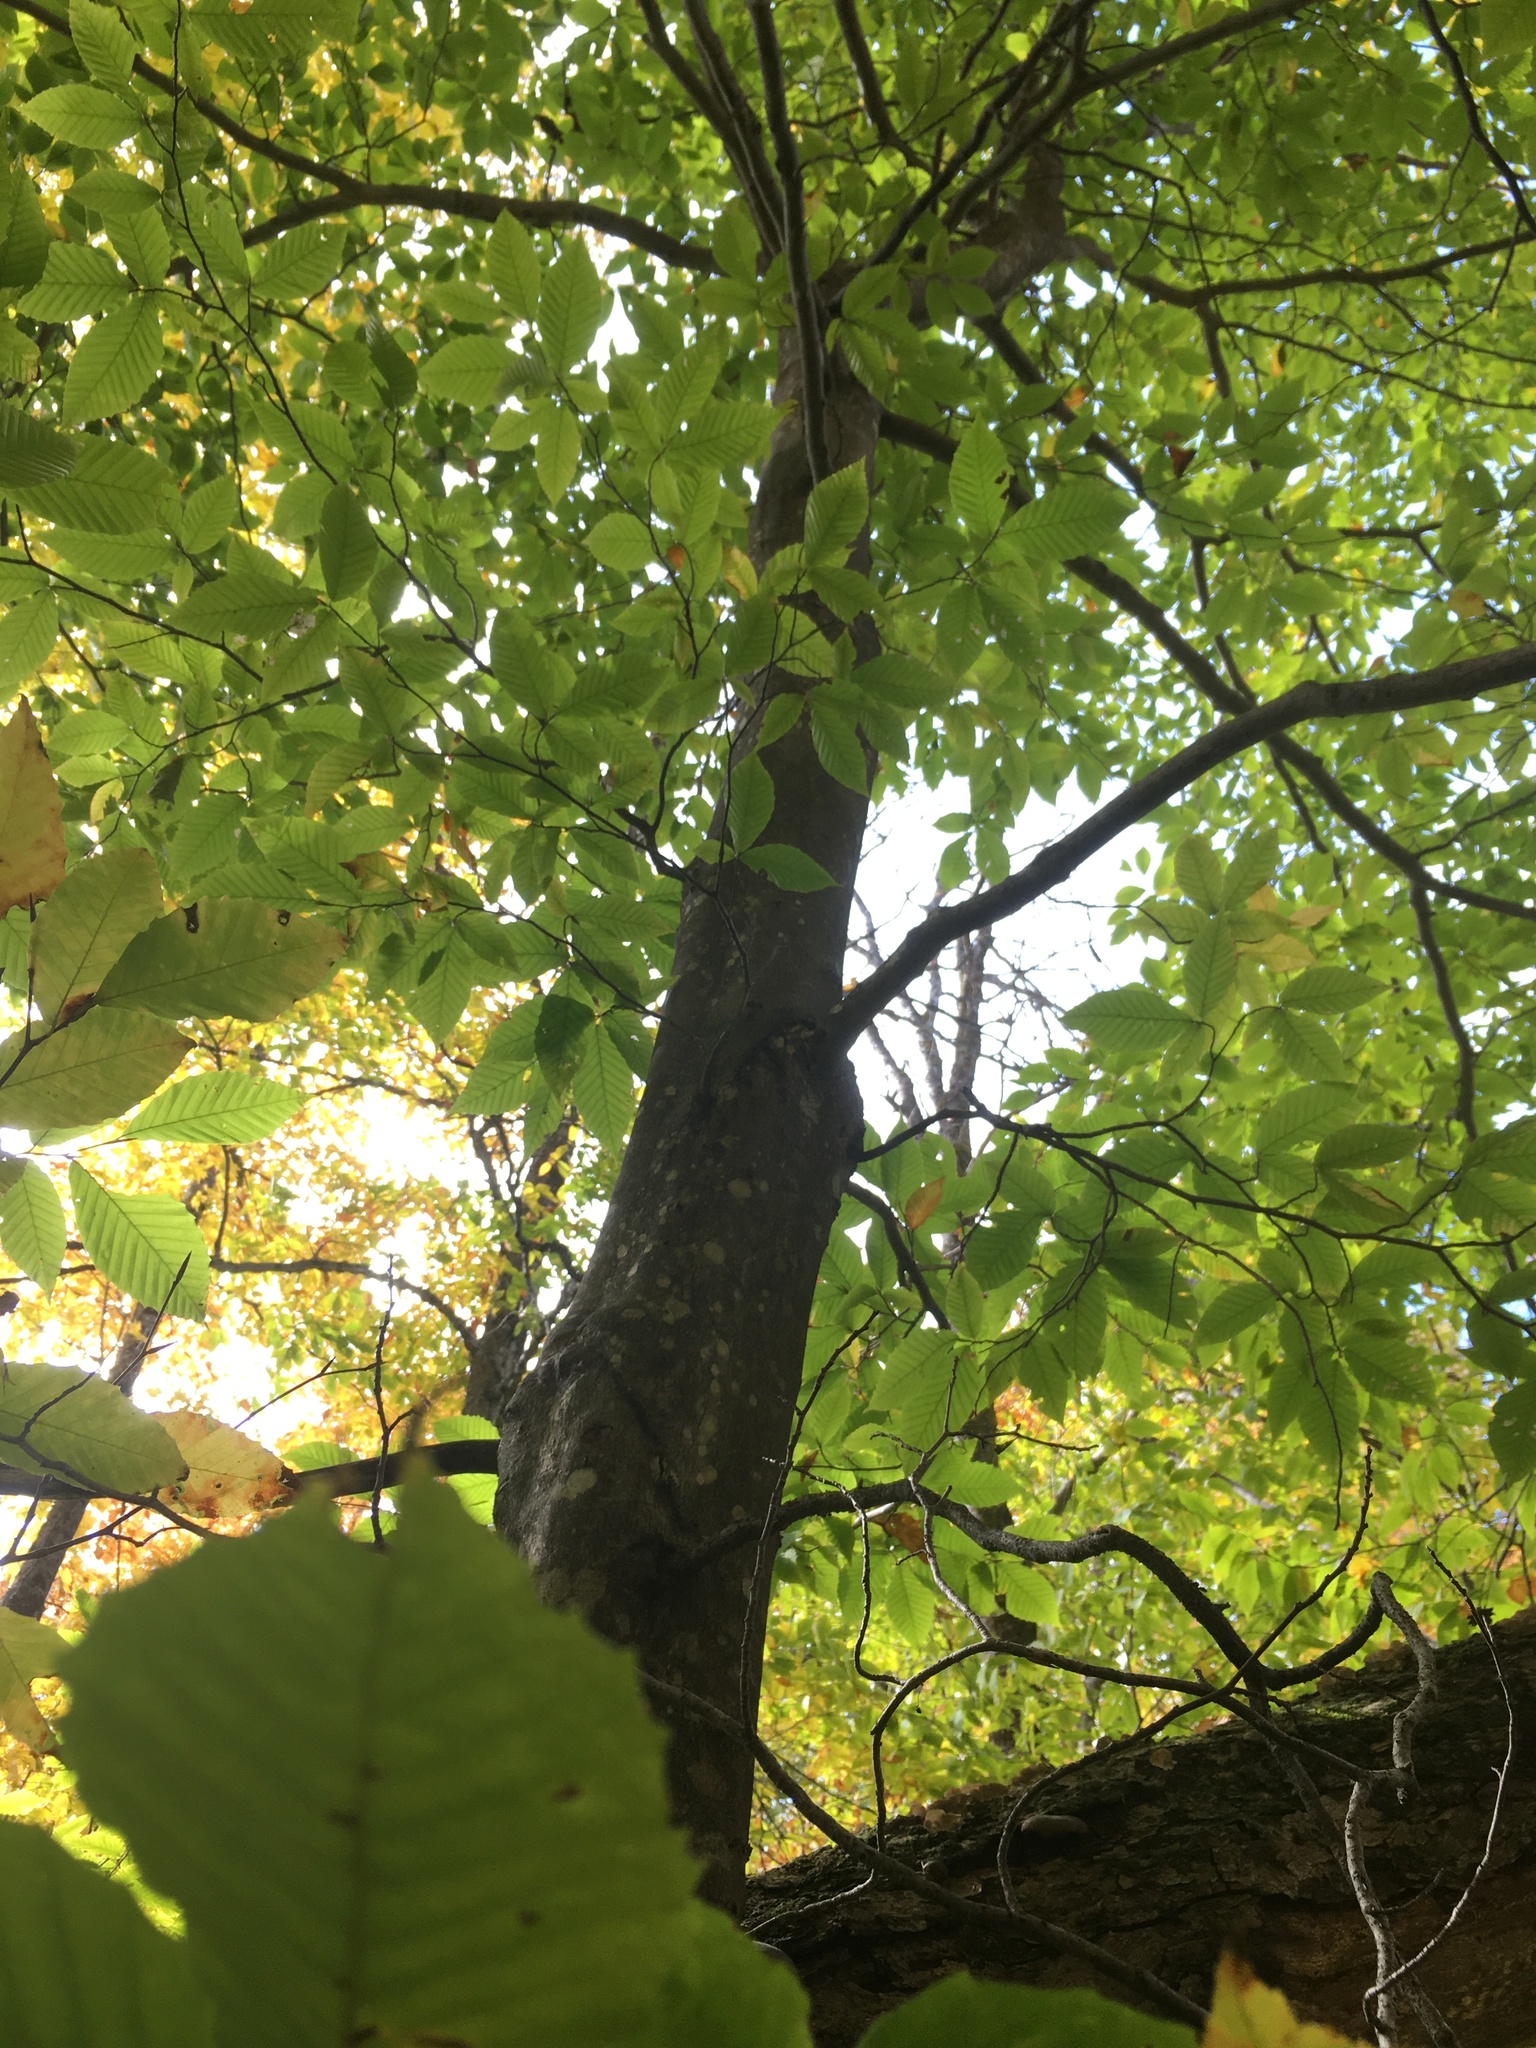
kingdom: Plantae
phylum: Tracheophyta
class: Magnoliopsida
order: Fagales
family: Fagaceae
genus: Fagus
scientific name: Fagus grandifolia
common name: American beech
